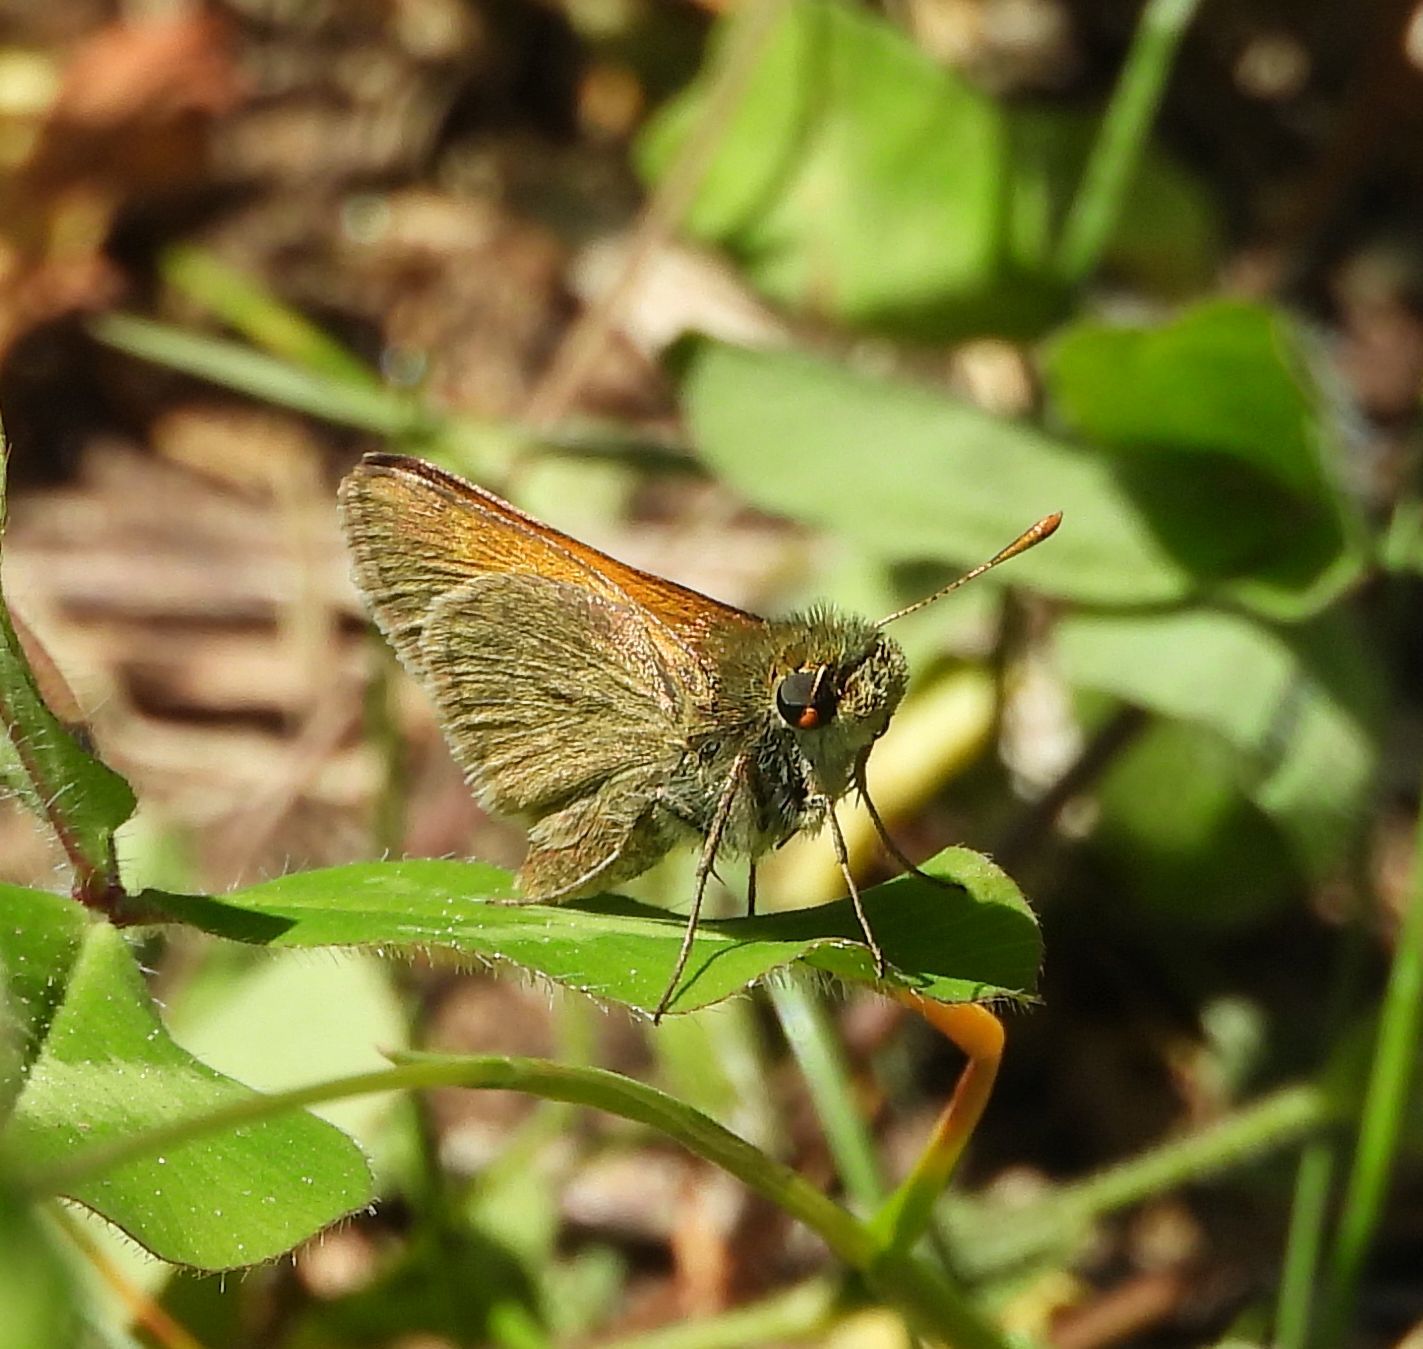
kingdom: Animalia
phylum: Arthropoda
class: Insecta
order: Lepidoptera
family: Hesperiidae
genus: Polites
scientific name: Polites themistocles
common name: Tawny-edged skipper
